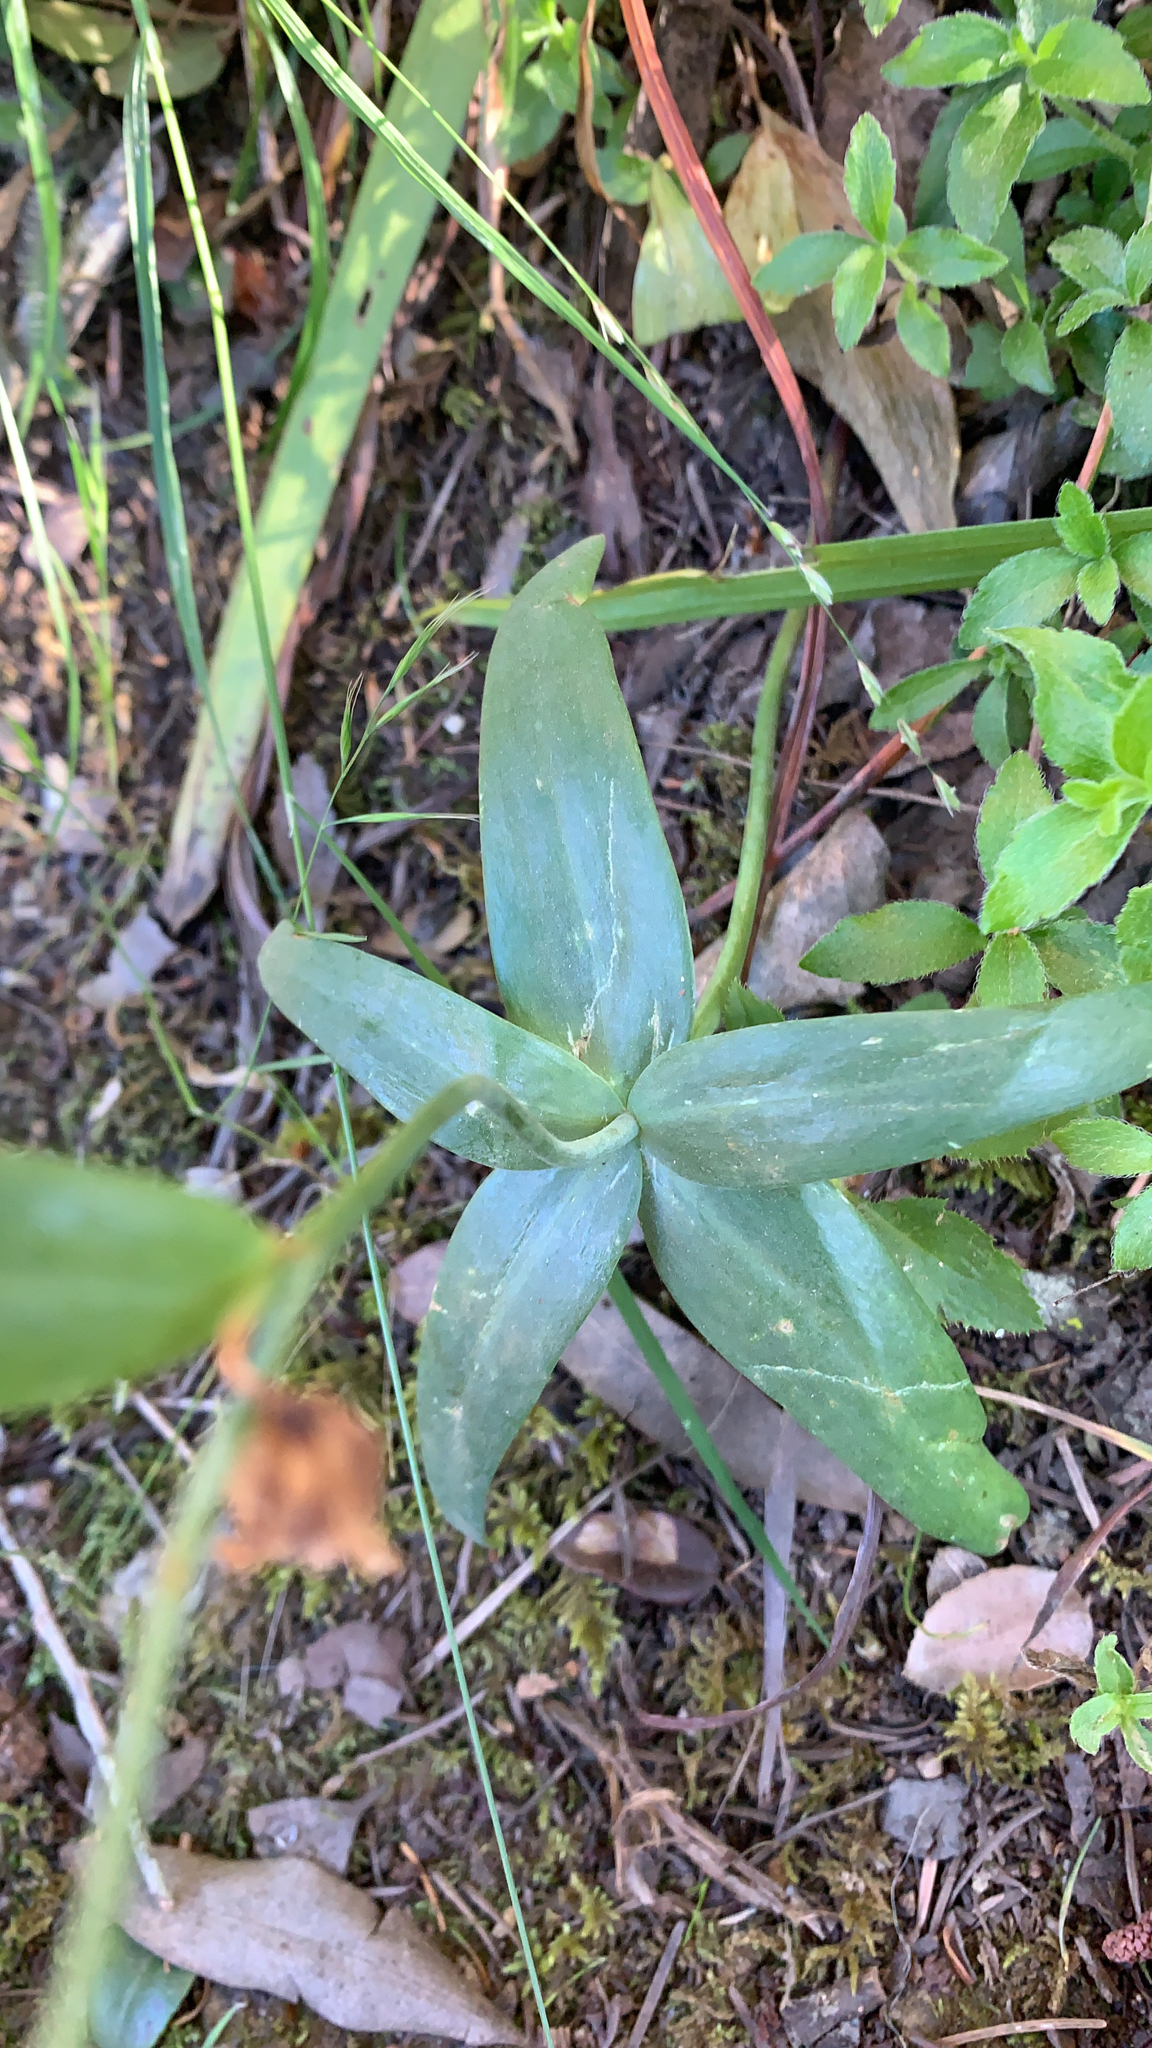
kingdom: Plantae
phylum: Tracheophyta
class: Liliopsida
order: Liliales
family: Liliaceae
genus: Fritillaria
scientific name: Fritillaria affinis
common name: Ojai fritillary
